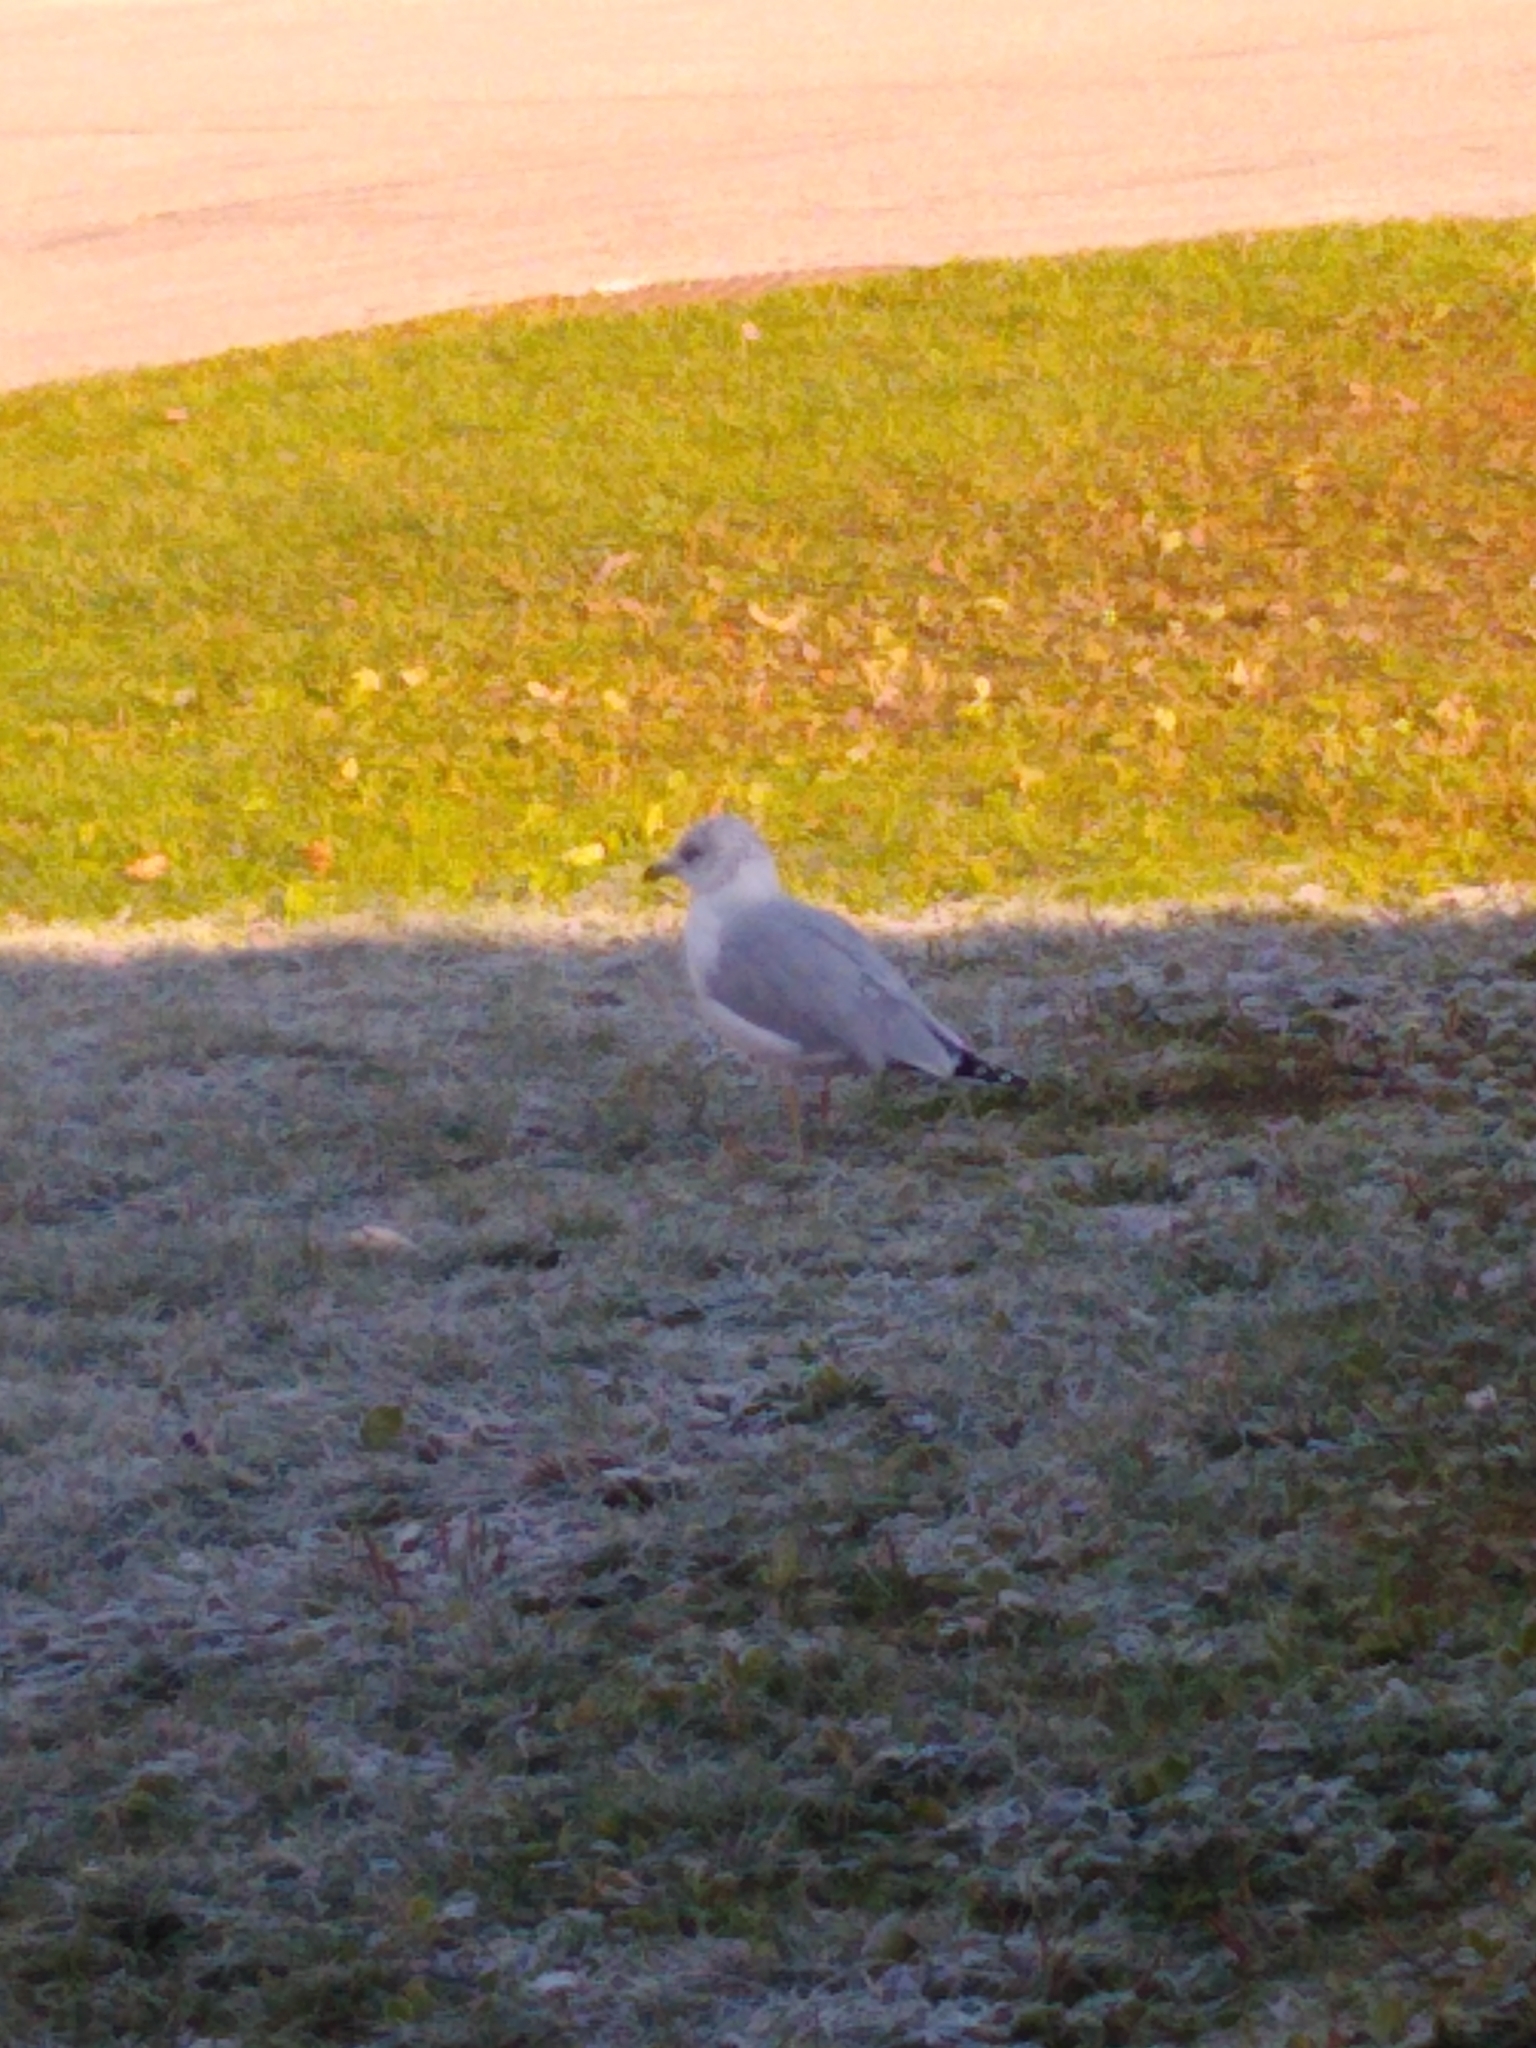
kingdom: Animalia
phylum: Chordata
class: Aves
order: Charadriiformes
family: Laridae
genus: Larus
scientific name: Larus delawarensis
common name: Ring-billed gull
